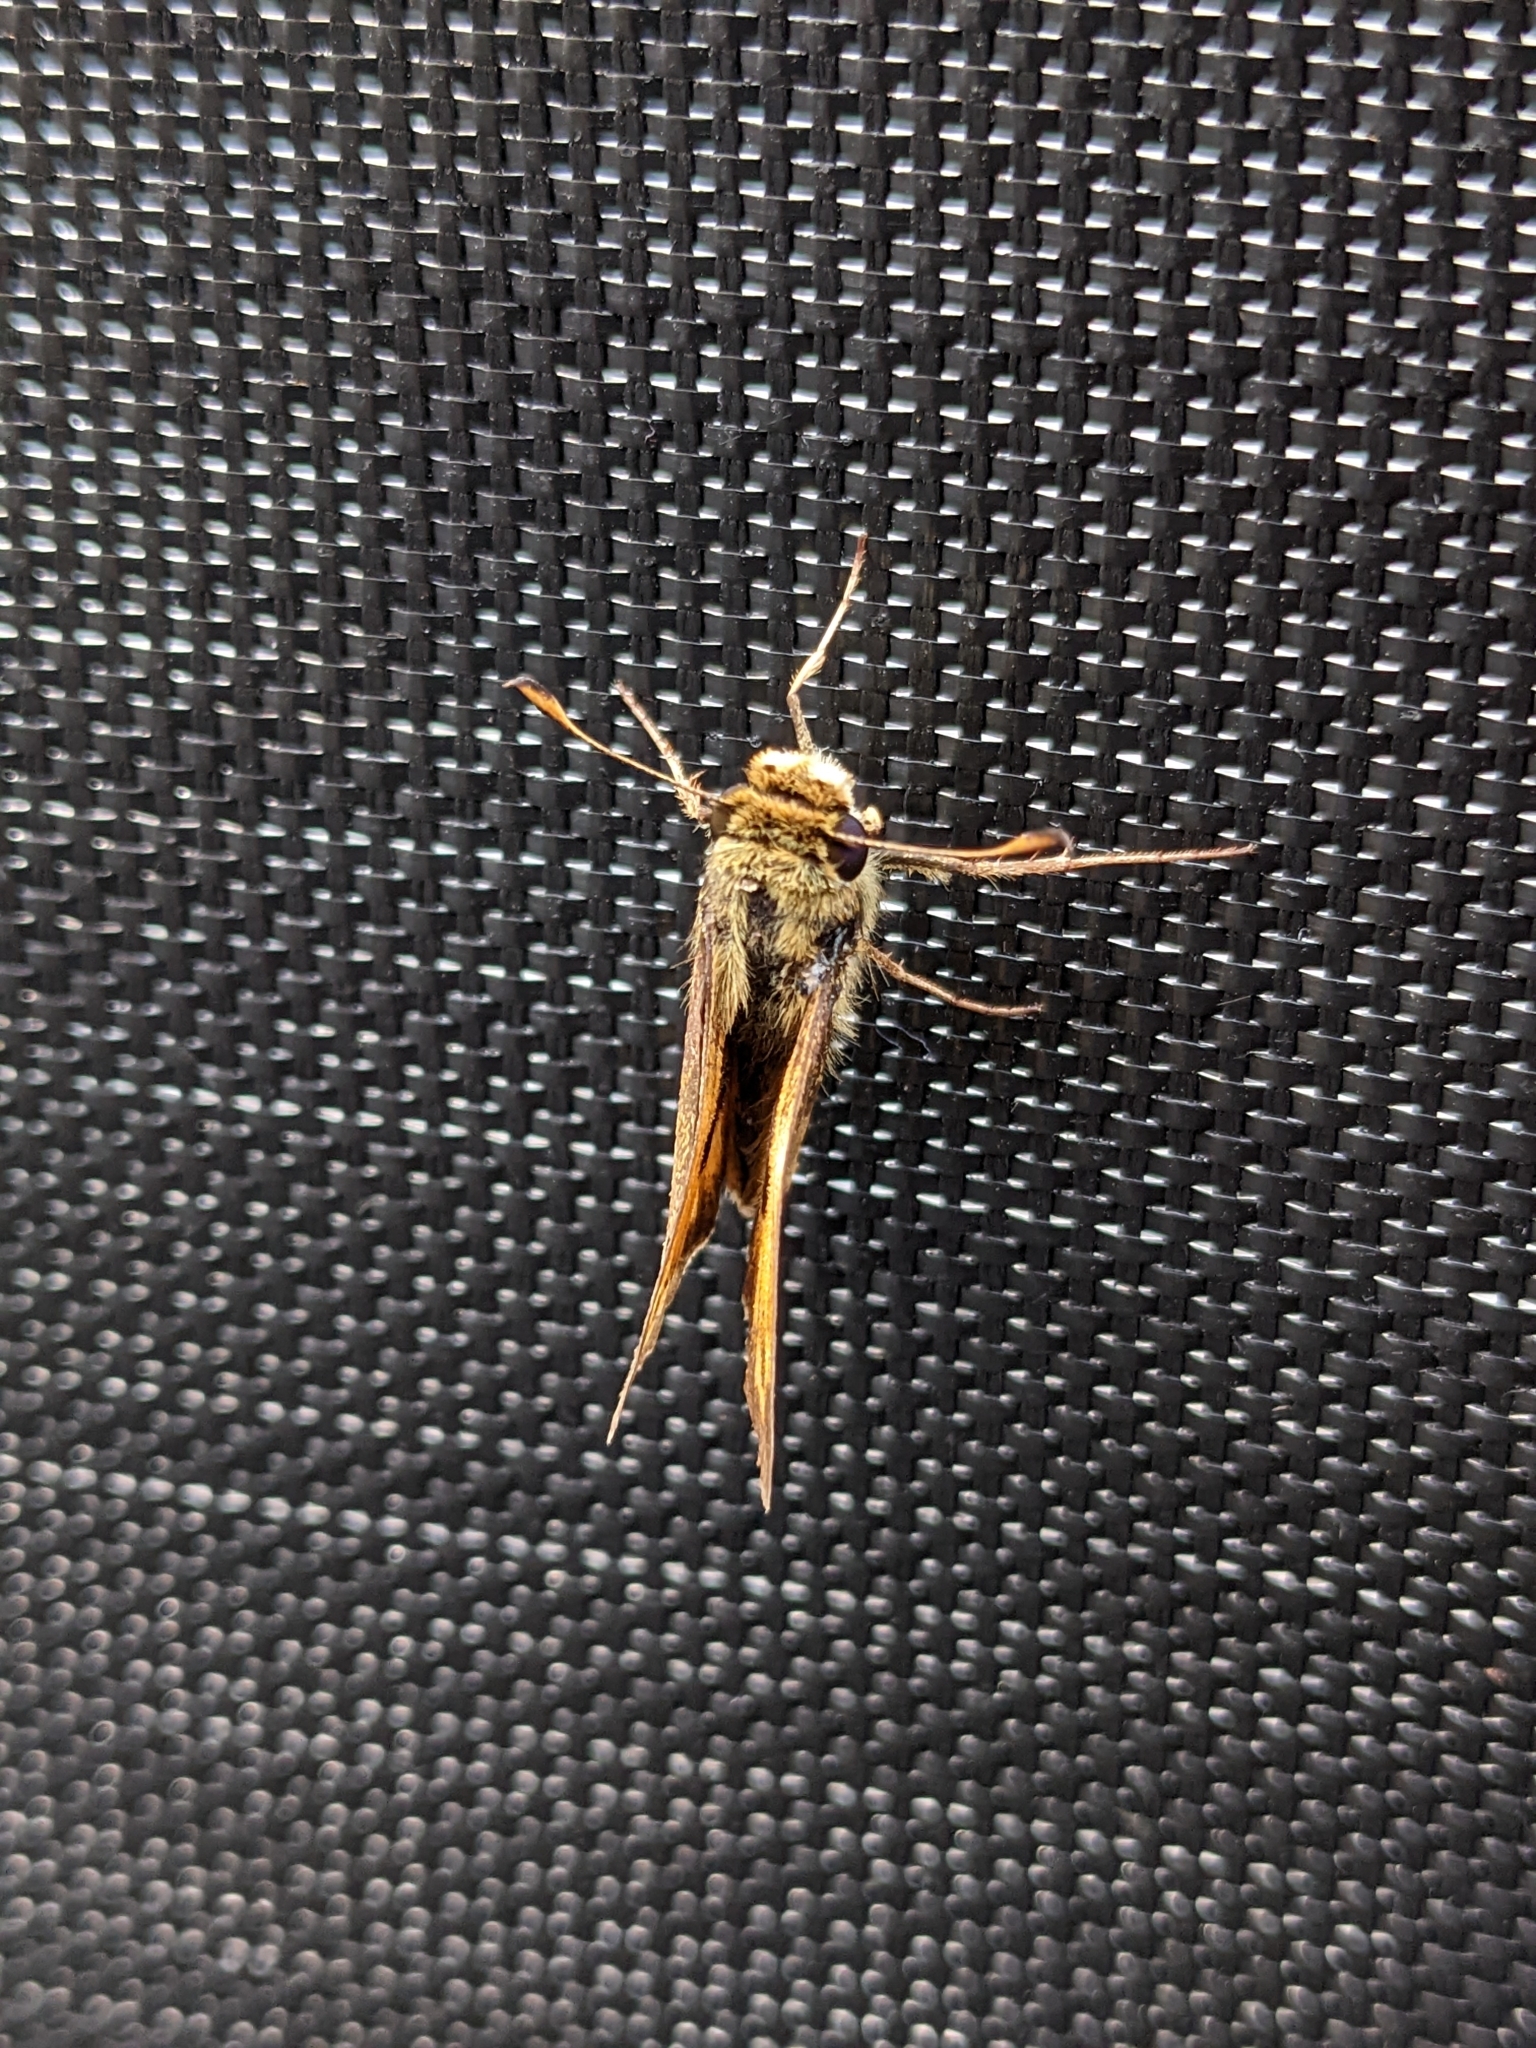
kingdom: Animalia
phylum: Arthropoda
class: Insecta
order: Lepidoptera
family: Hesperiidae
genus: Atalopedes
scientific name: Atalopedes
